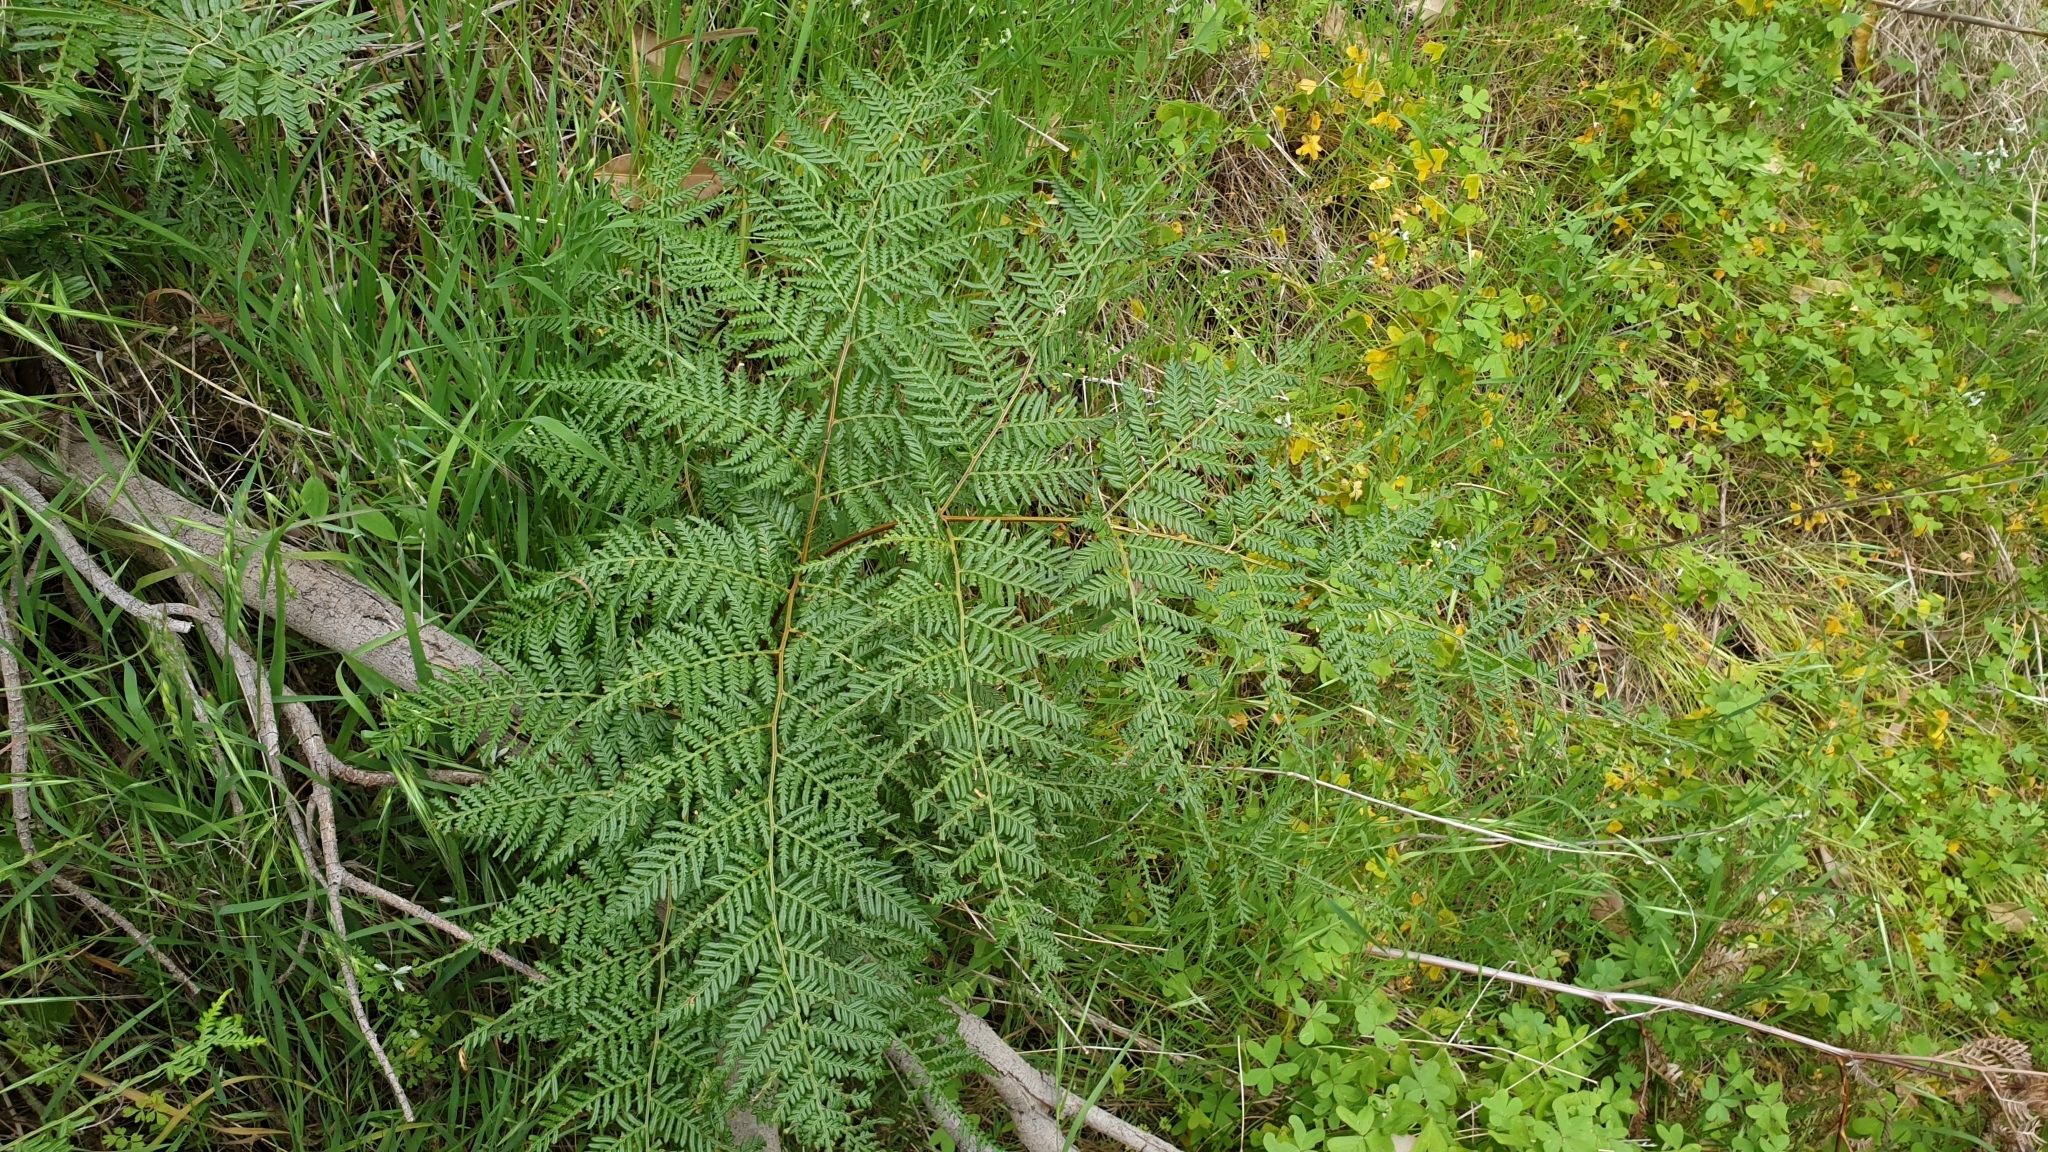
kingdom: Plantae
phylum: Tracheophyta
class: Polypodiopsida
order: Polypodiales
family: Dennstaedtiaceae
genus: Pteridium
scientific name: Pteridium esculentum
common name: Bracken fern
